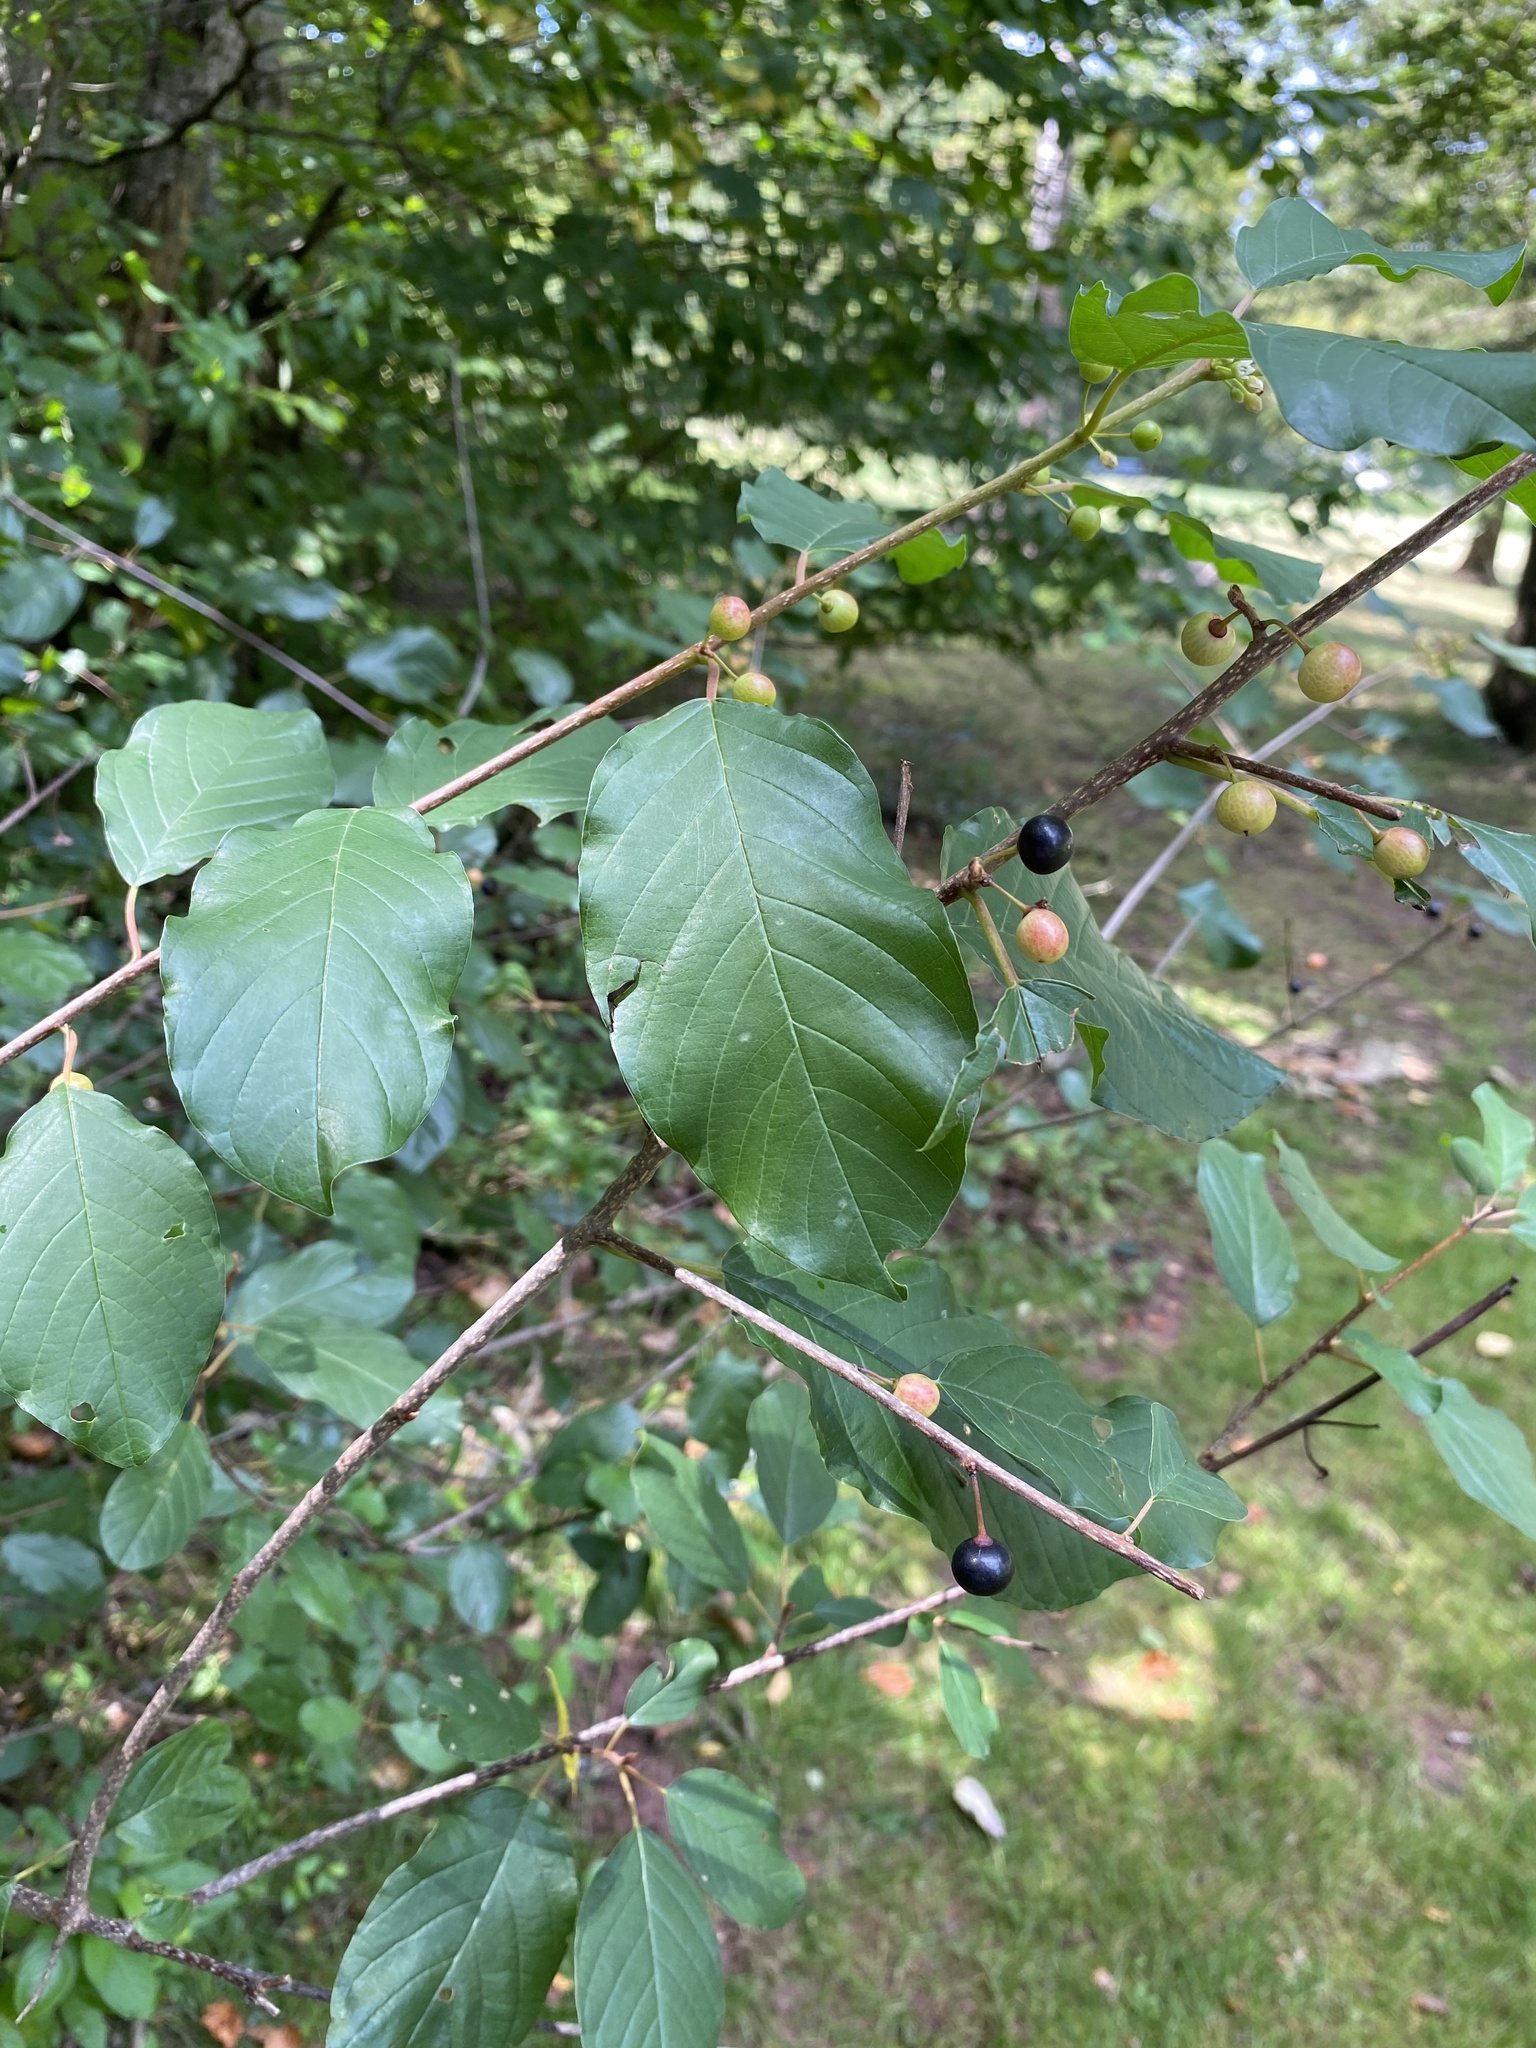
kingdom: Plantae
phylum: Tracheophyta
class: Magnoliopsida
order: Rosales
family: Rhamnaceae
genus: Frangula
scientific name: Frangula alnus
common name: Alder buckthorn
